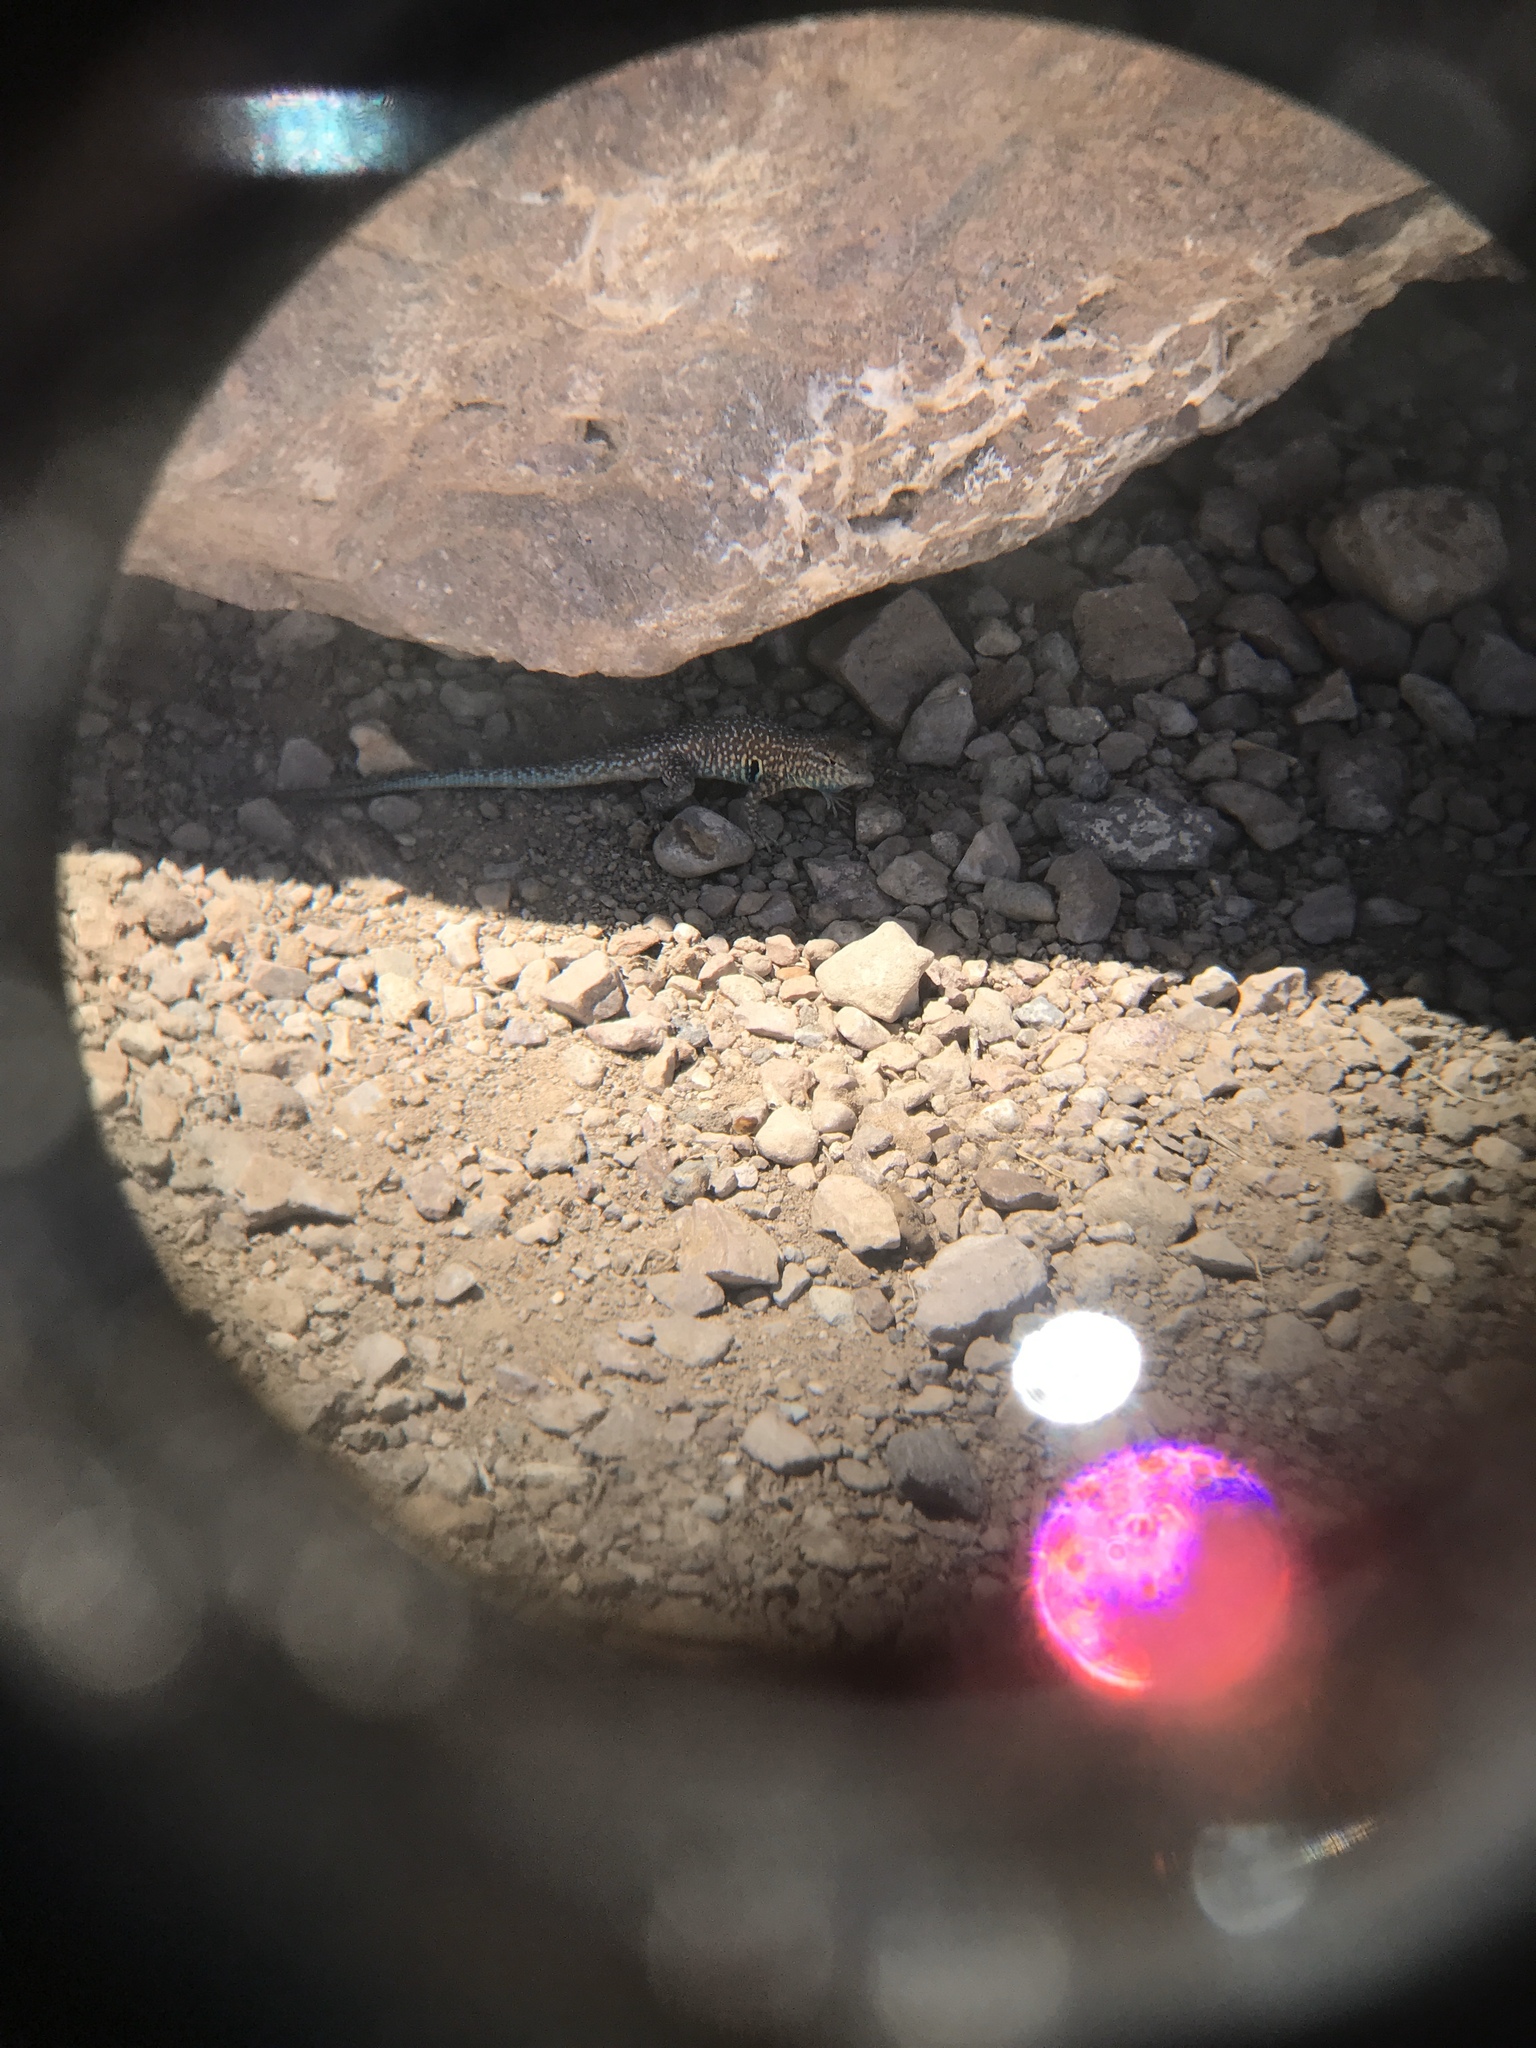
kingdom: Animalia
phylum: Chordata
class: Squamata
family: Phrynosomatidae
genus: Uta
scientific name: Uta stansburiana
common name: Side-blotched lizard
